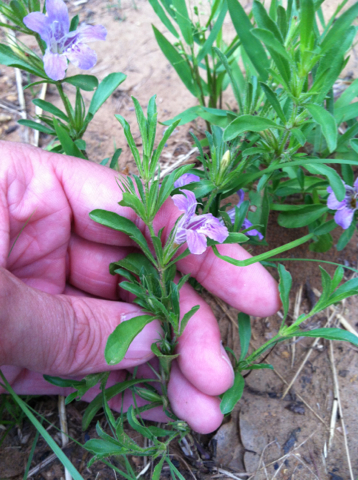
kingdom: Plantae
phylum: Tracheophyta
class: Magnoliopsida
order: Lamiales
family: Acanthaceae
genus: Dyschoriste
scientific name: Dyschoriste linearis
